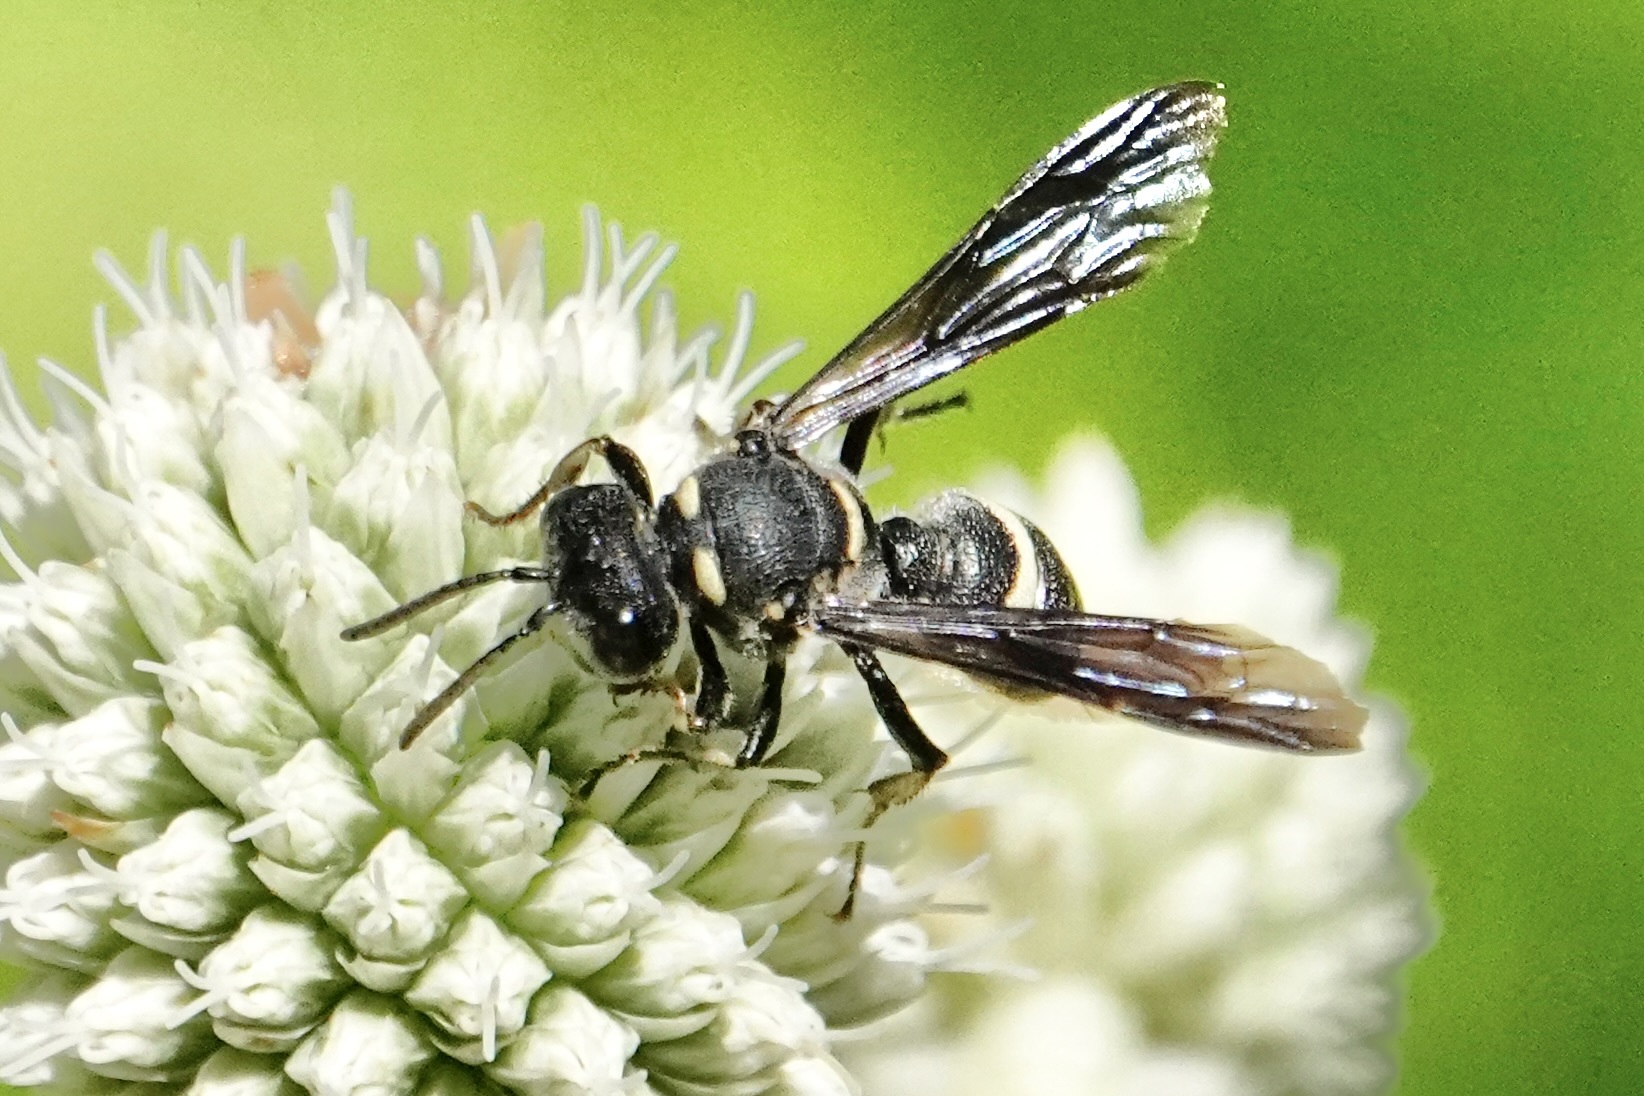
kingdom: Animalia
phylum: Arthropoda
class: Insecta
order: Hymenoptera
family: Crabronidae
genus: Cerceris
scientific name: Cerceris fumipennis
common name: Smokey-winged beetle bandit wasp
